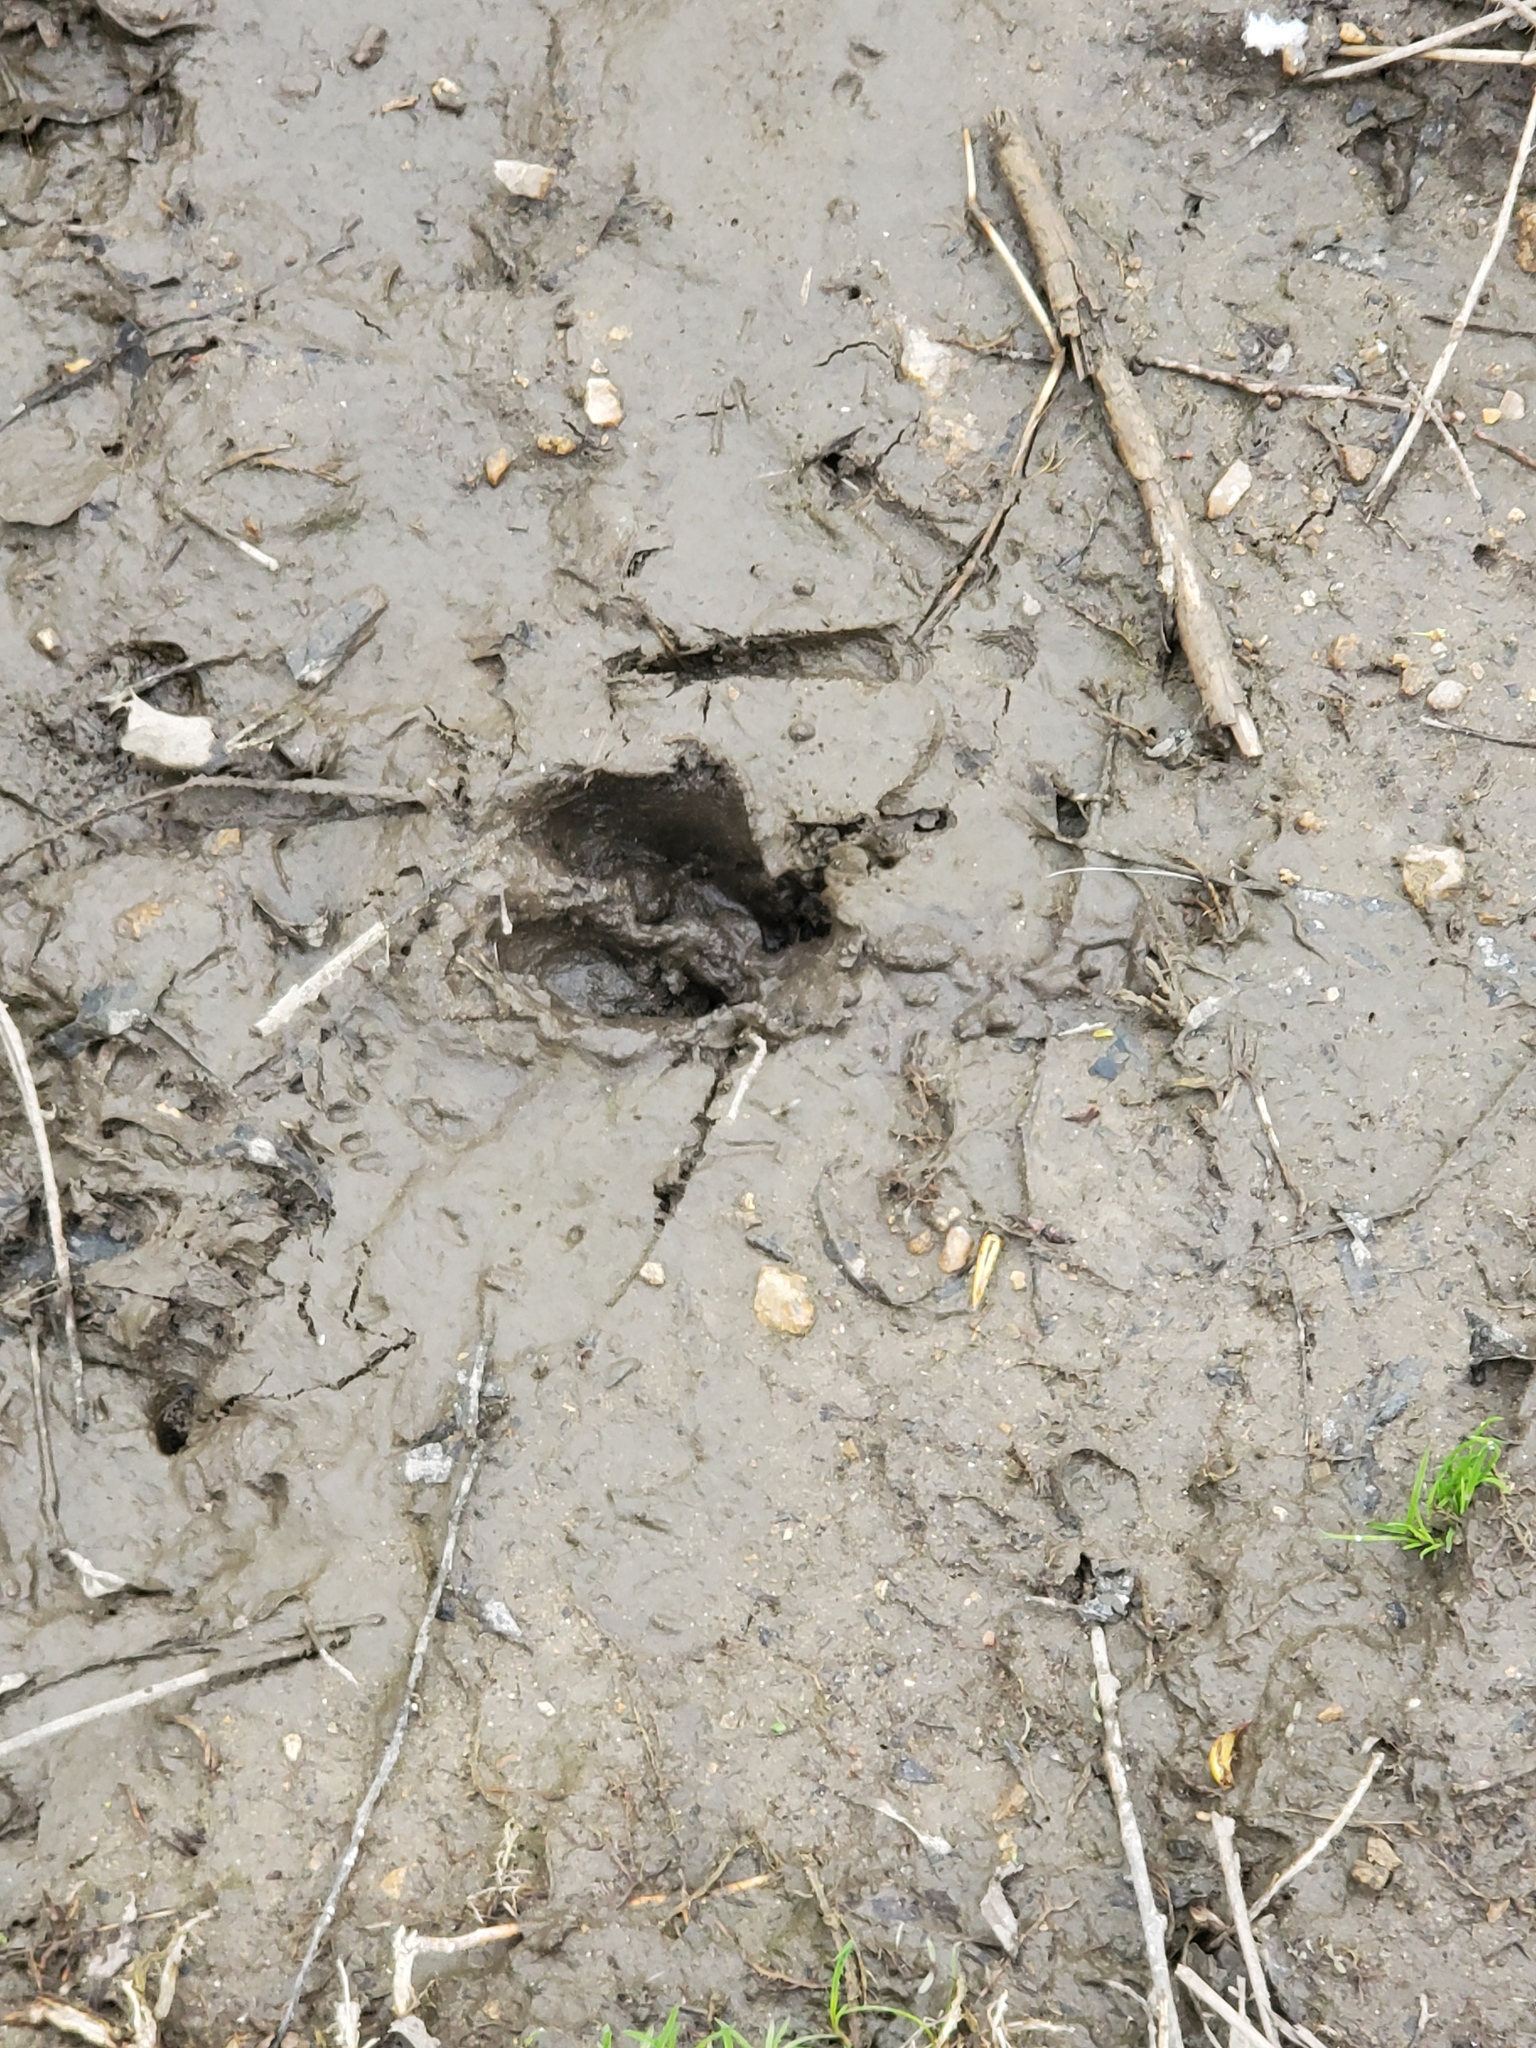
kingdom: Animalia
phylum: Chordata
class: Mammalia
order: Artiodactyla
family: Cervidae
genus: Odocoileus
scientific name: Odocoileus virginianus
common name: White-tailed deer
